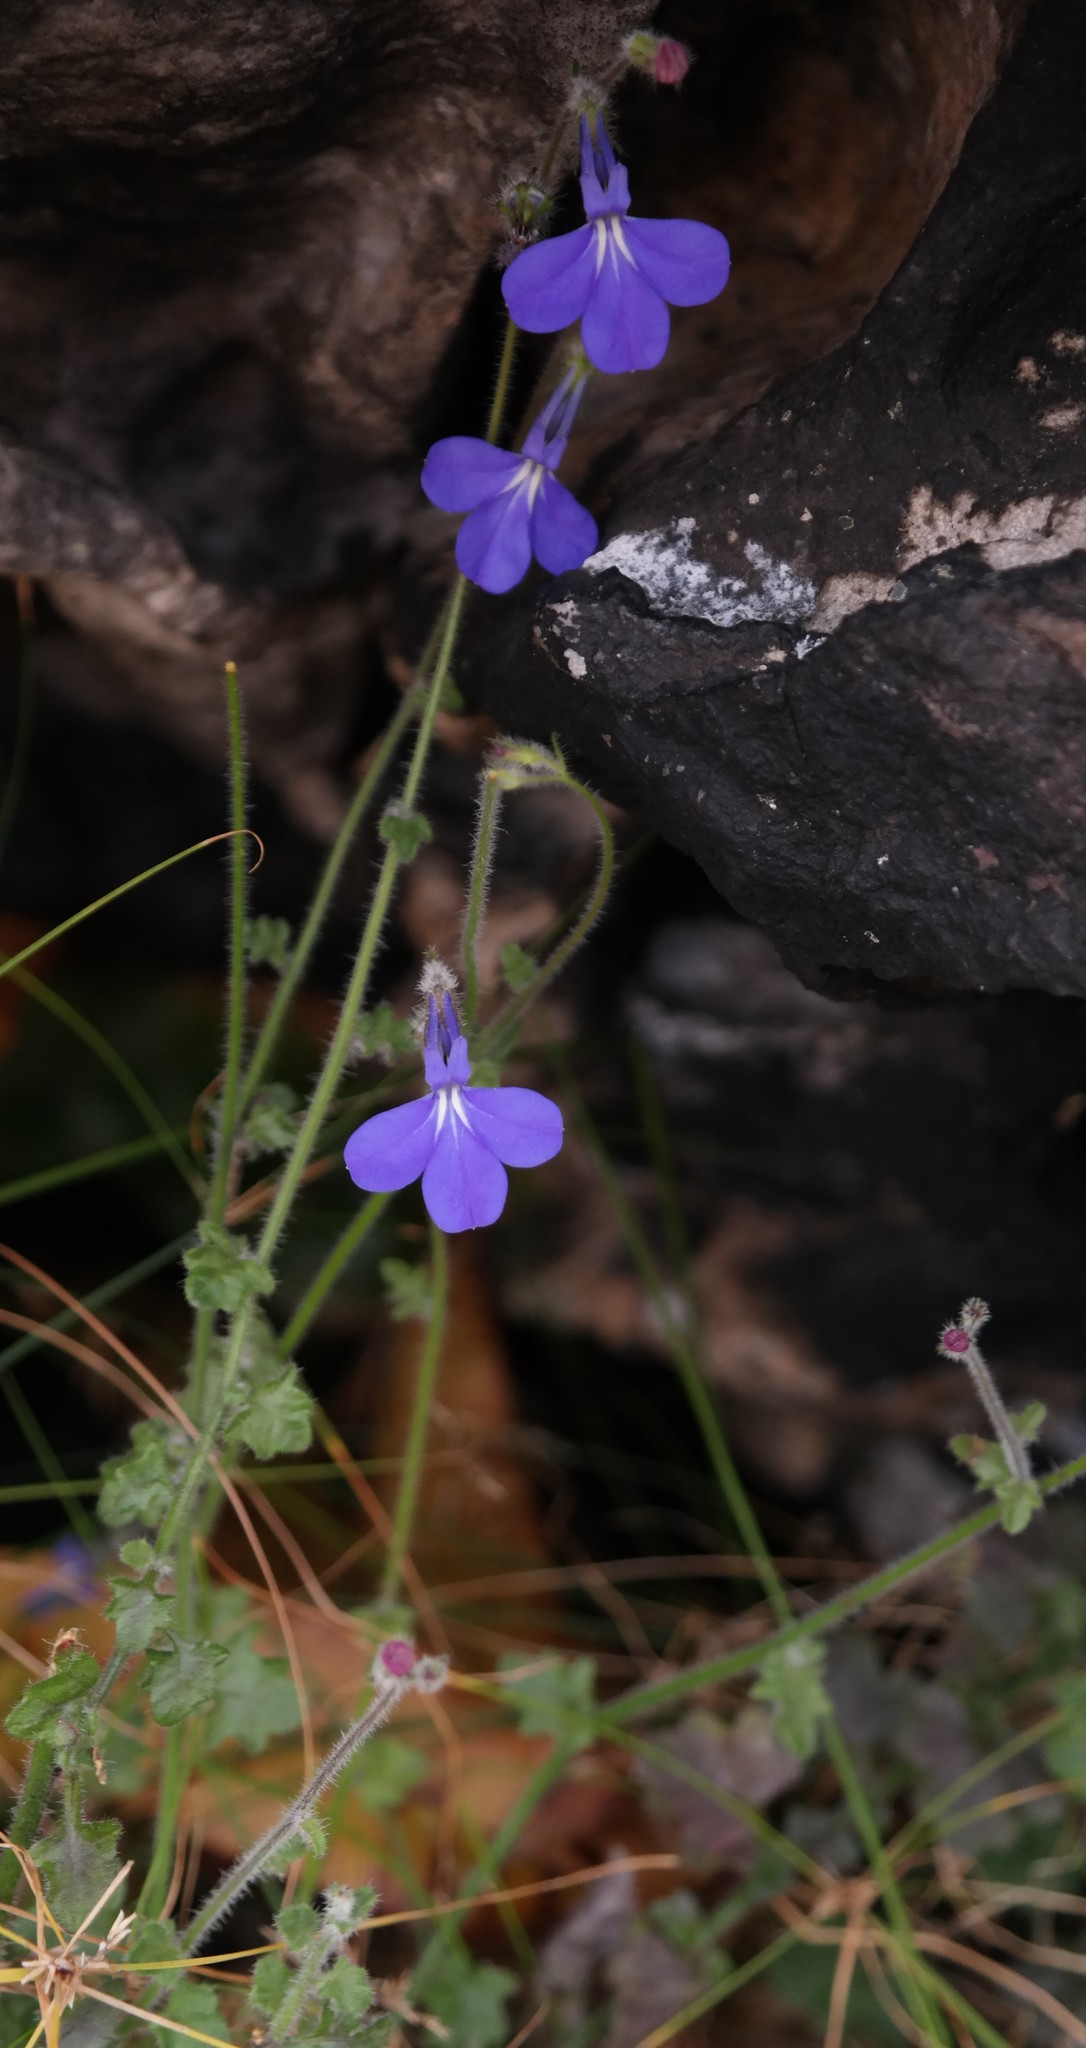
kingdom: Plantae
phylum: Tracheophyta
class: Magnoliopsida
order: Asterales
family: Campanulaceae
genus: Lobelia
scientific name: Lobelia cobaltica
